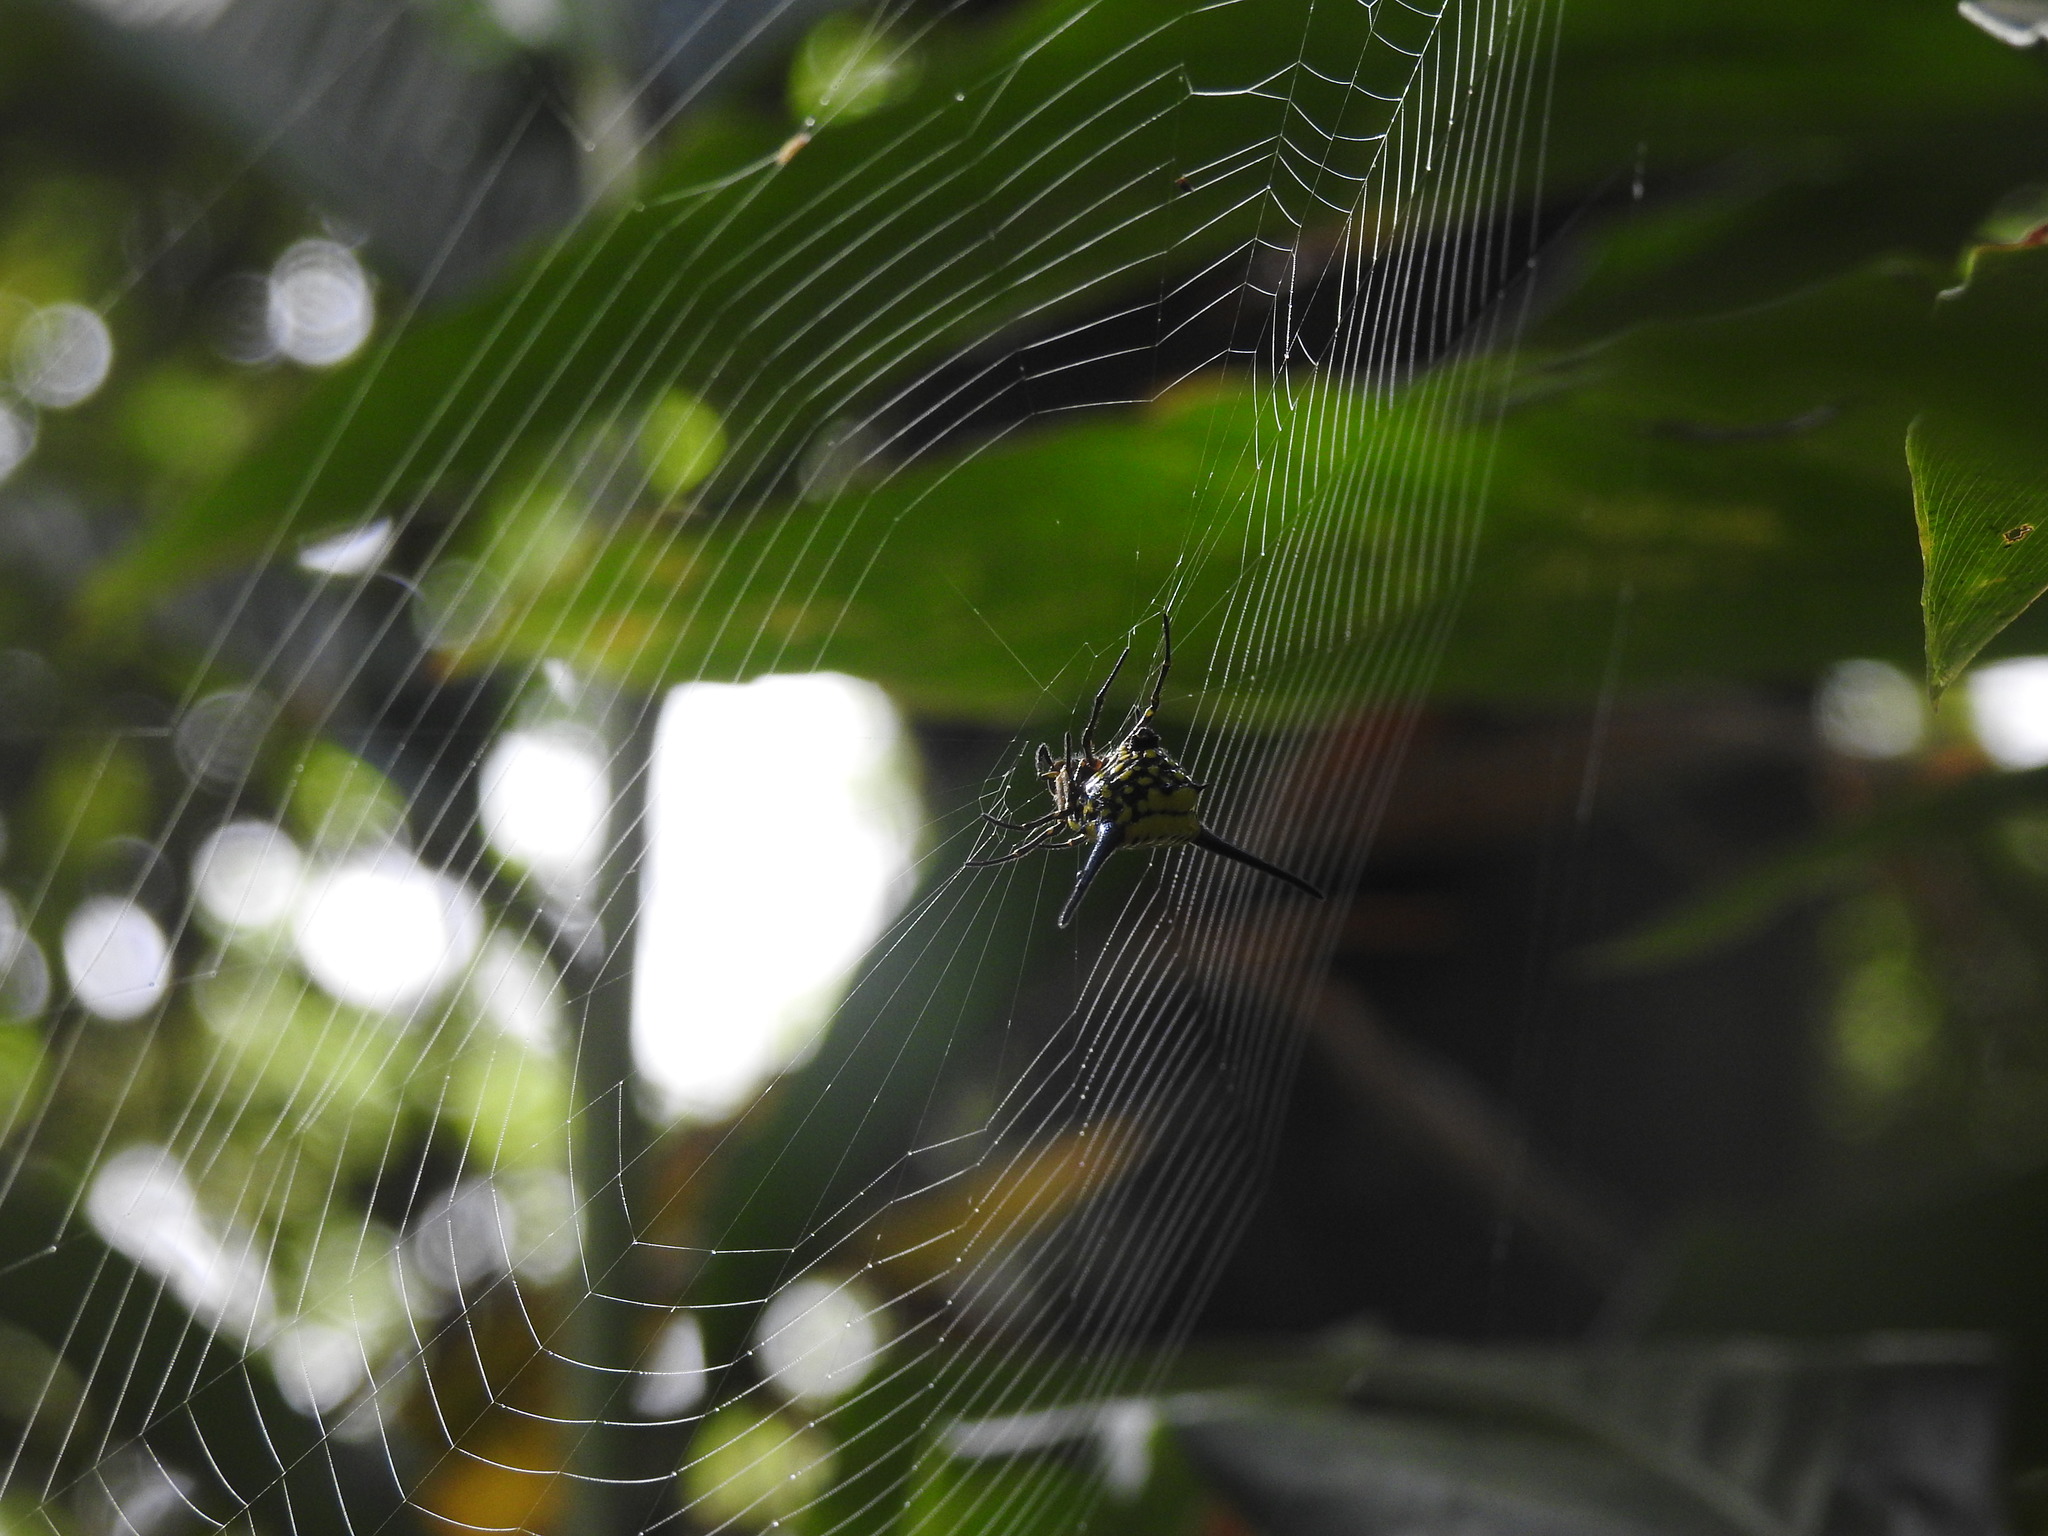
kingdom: Animalia
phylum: Arthropoda
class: Arachnida
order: Araneae
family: Araneidae
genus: Gasteracantha
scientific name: Gasteracantha dalyi
